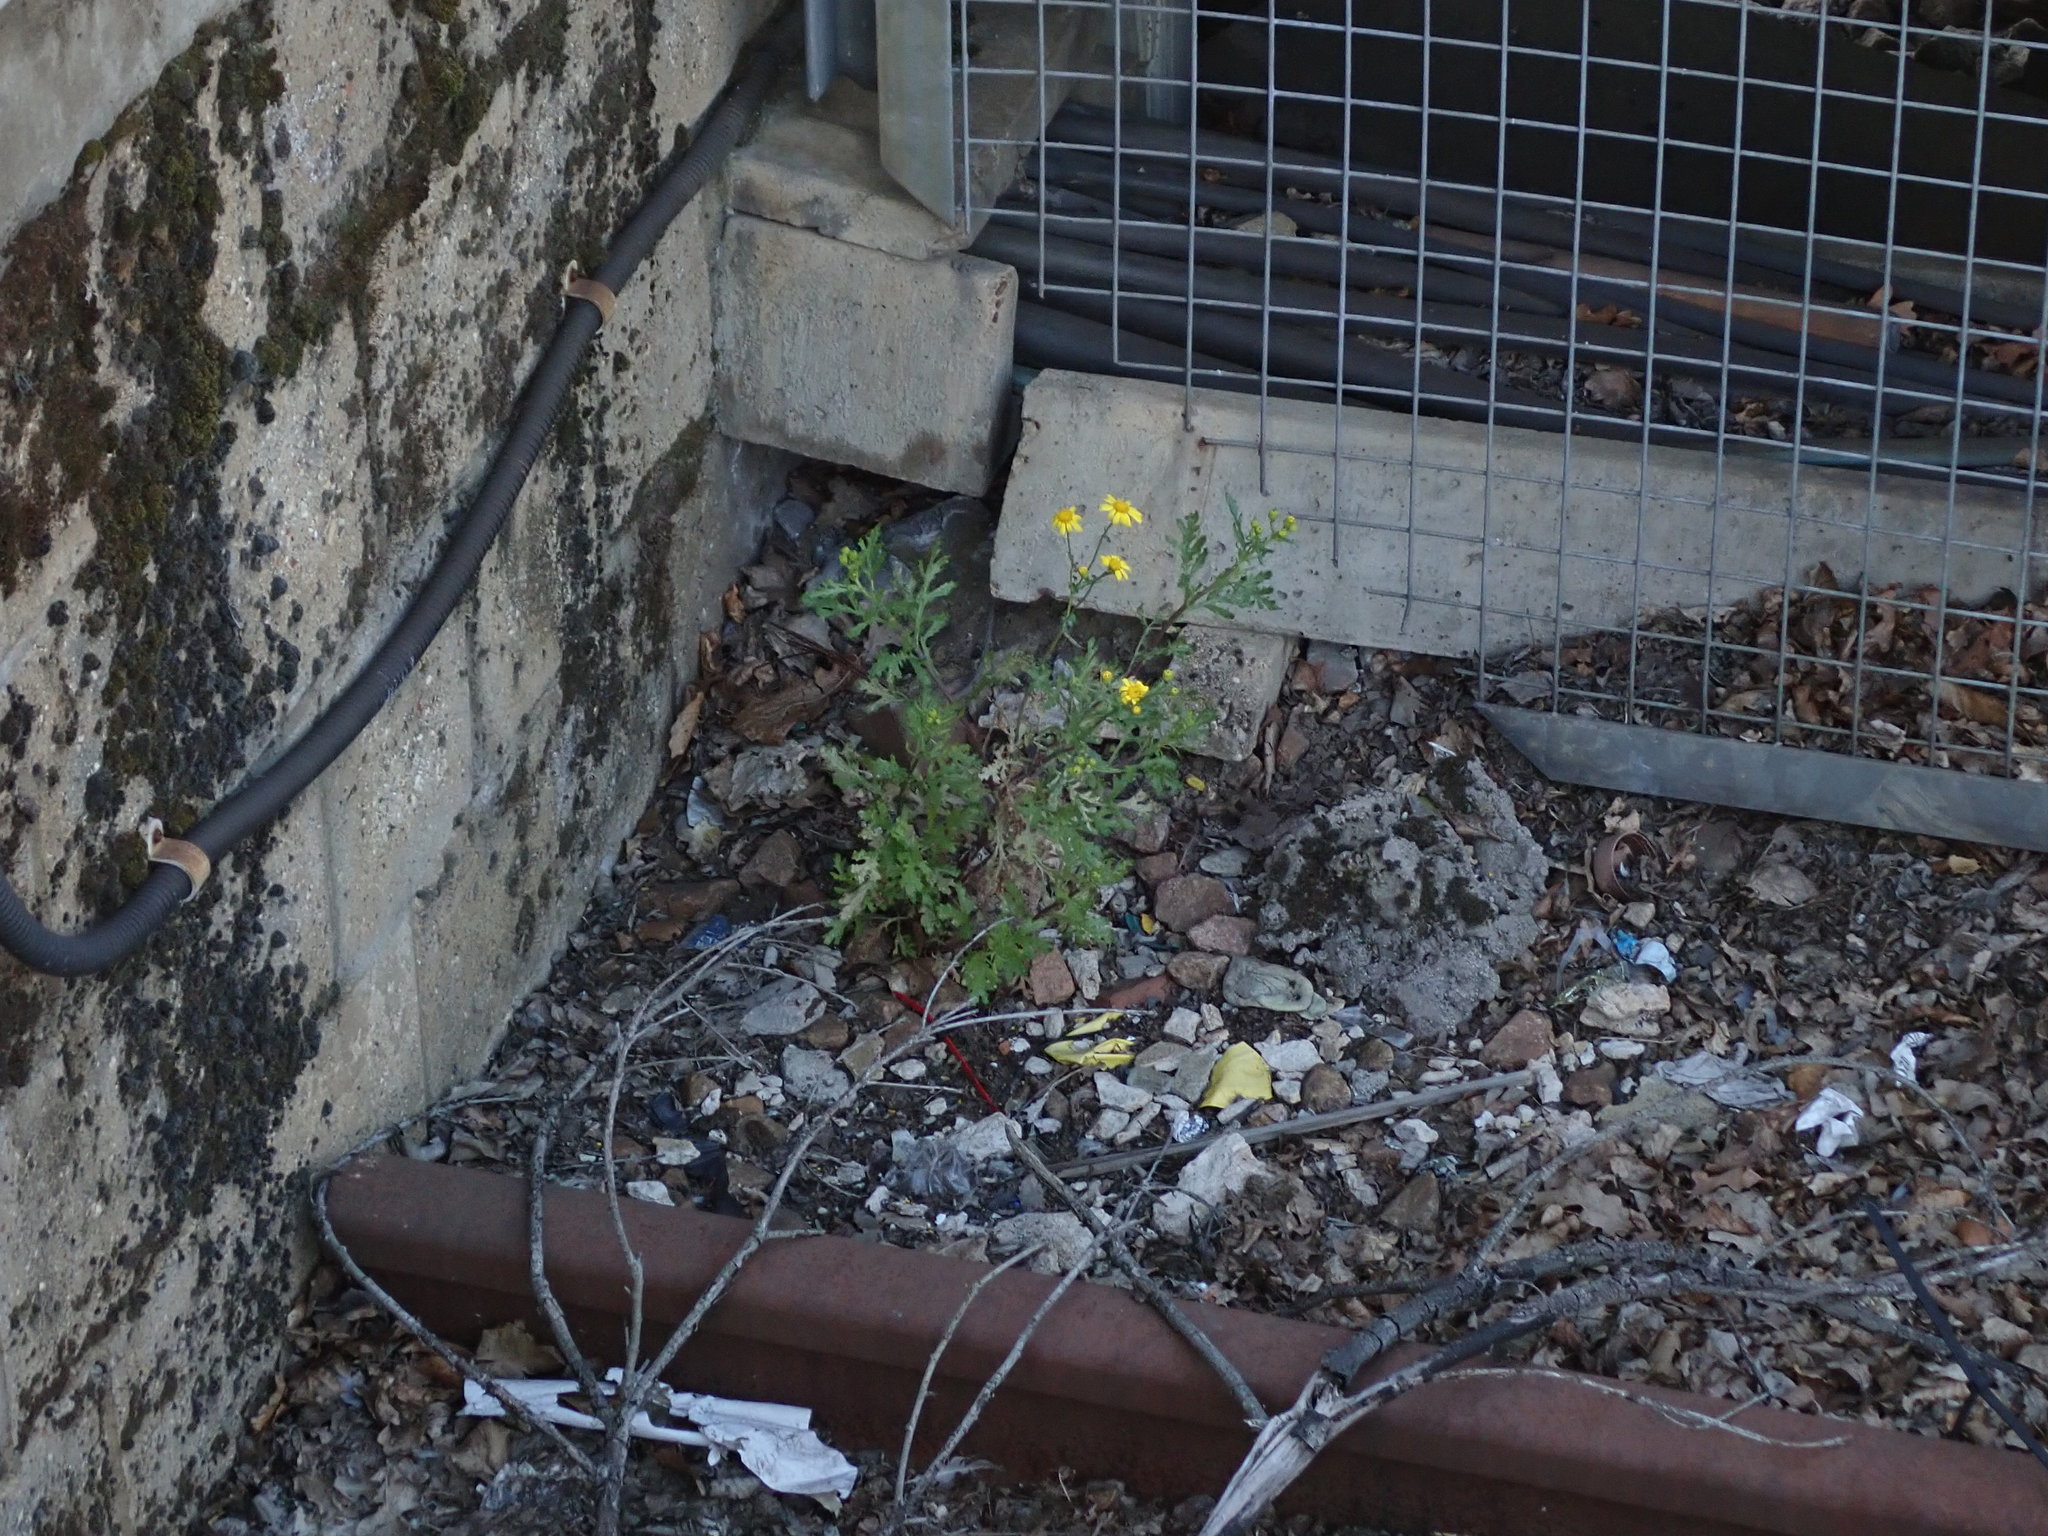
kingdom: Plantae
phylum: Tracheophyta
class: Magnoliopsida
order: Asterales
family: Asteraceae
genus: Senecio
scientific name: Senecio squalidus
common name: Oxford ragwort
